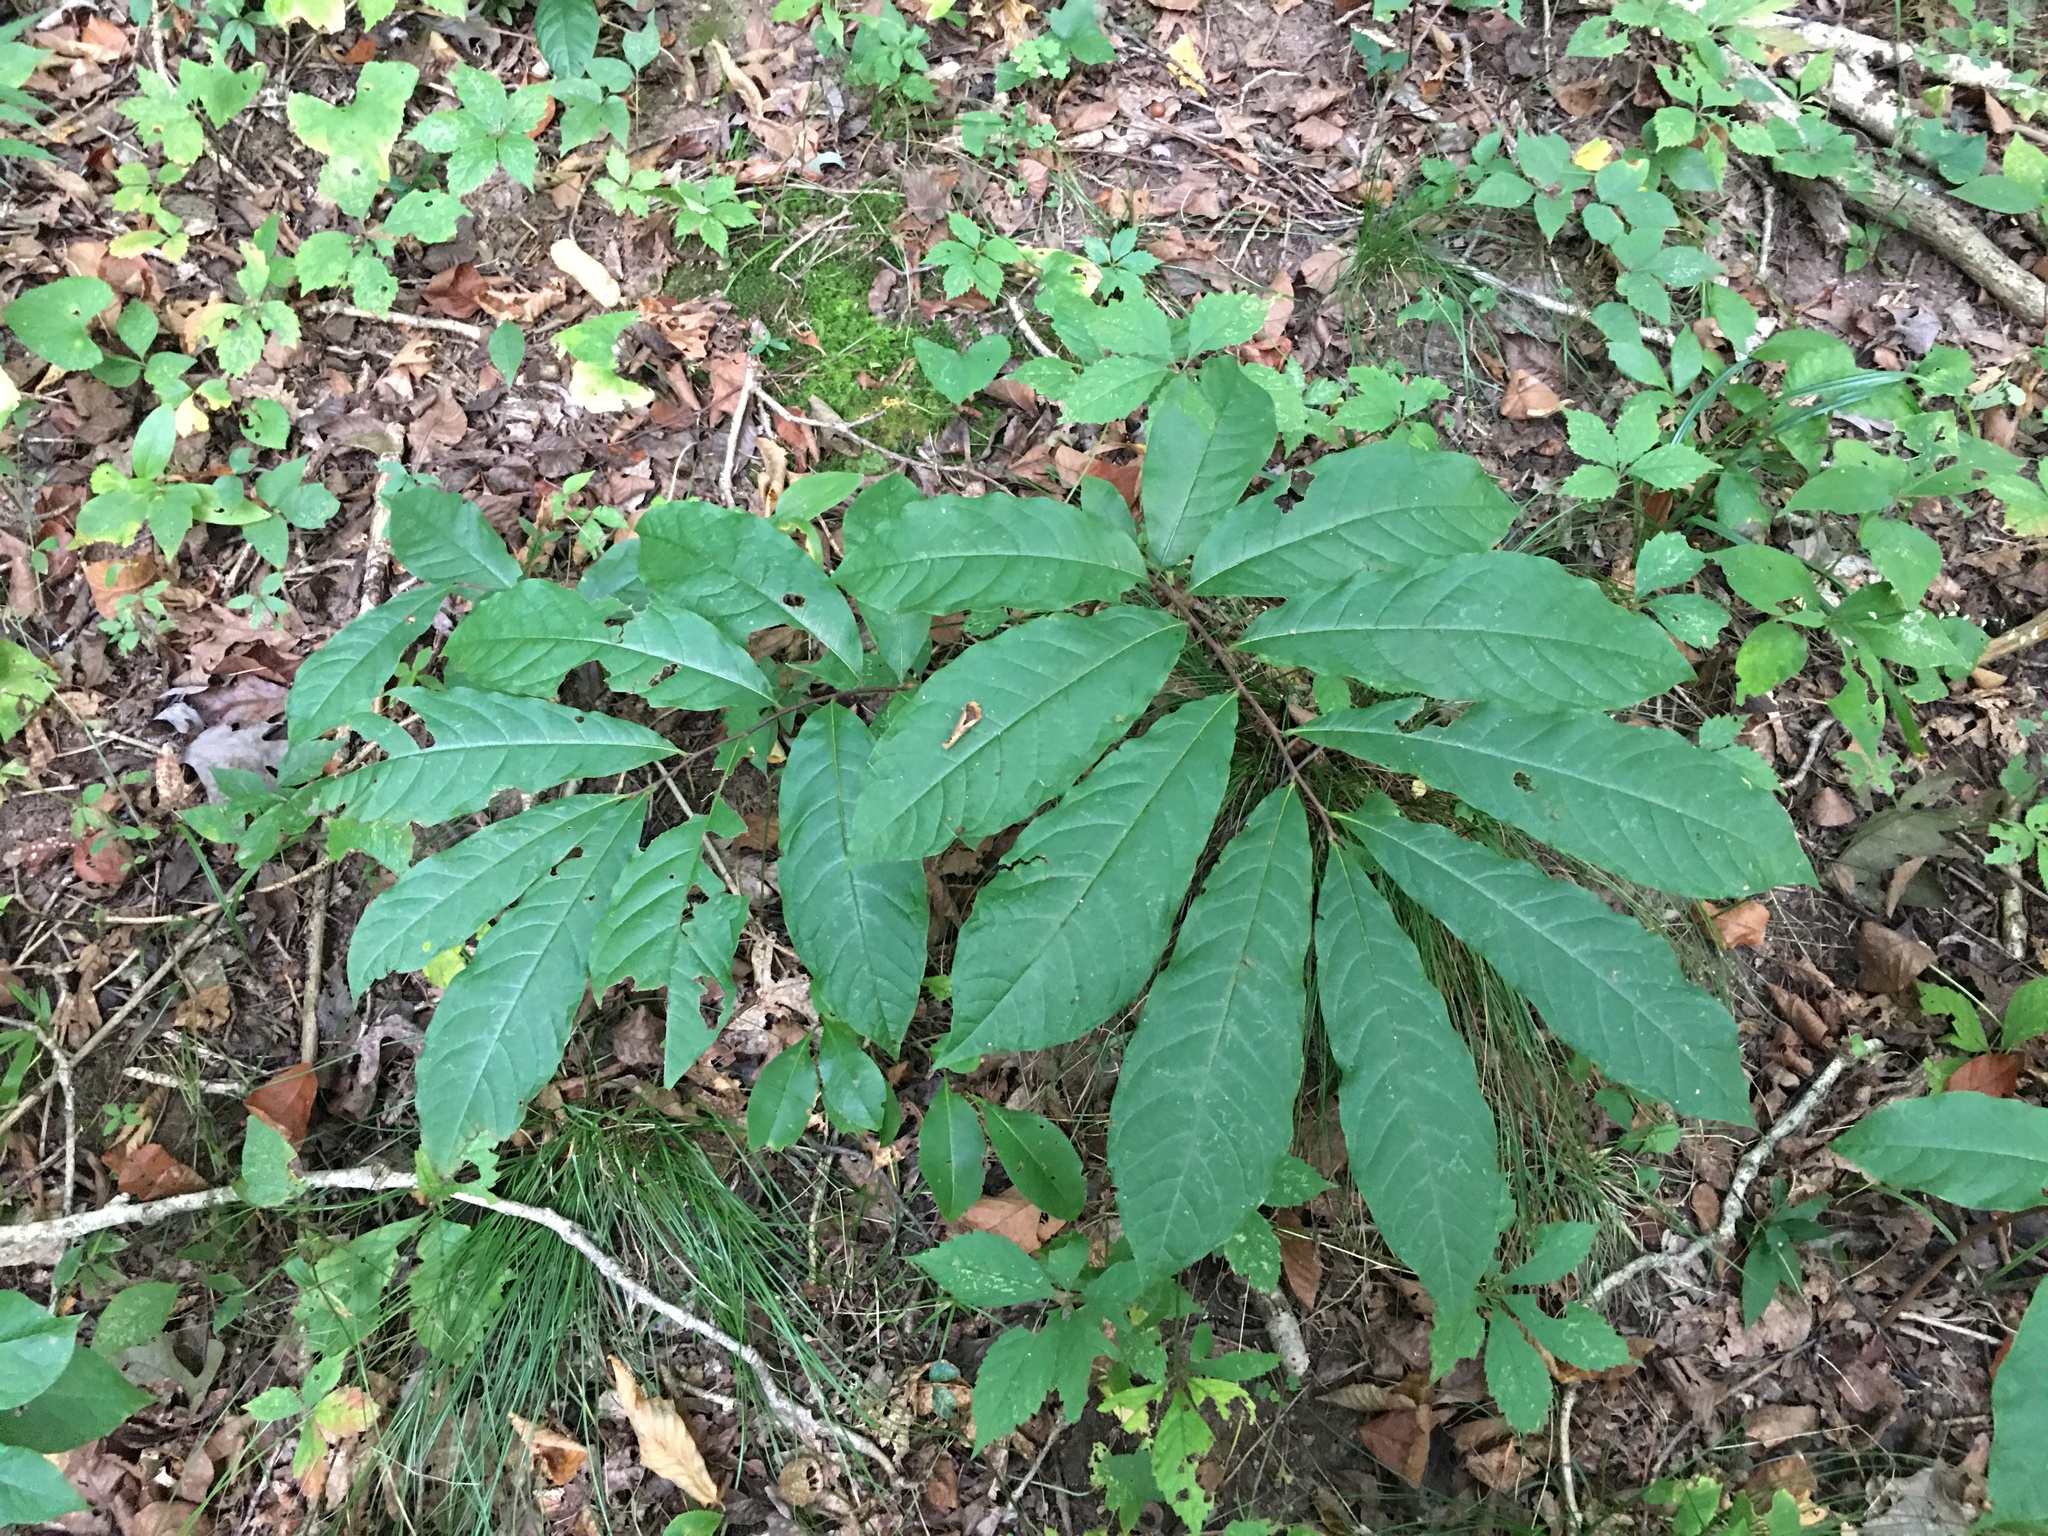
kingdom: Plantae
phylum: Tracheophyta
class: Magnoliopsida
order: Magnoliales
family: Annonaceae
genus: Asimina
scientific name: Asimina triloba
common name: Dog-banana
